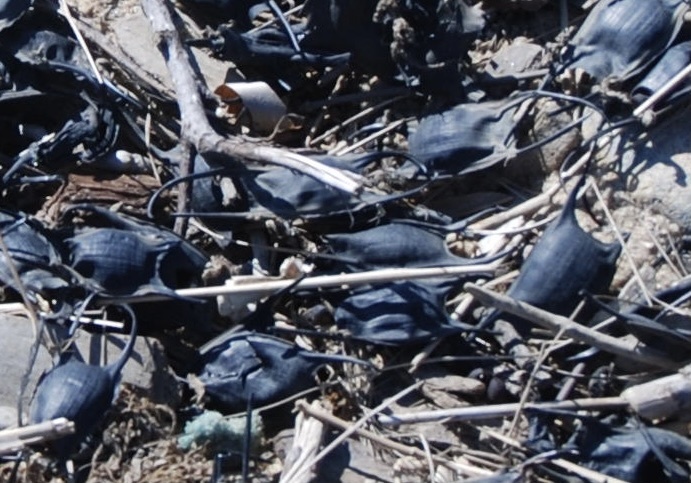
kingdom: Animalia
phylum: Chordata
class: Elasmobranchii
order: Rajiformes
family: Rajidae
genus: Leucoraja
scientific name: Leucoraja erinacea
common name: Little skate
